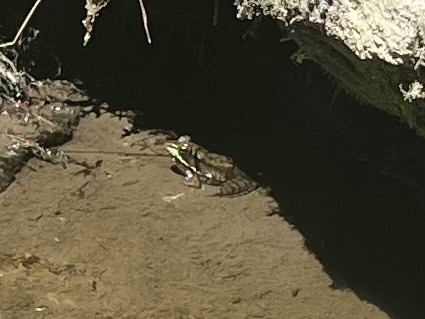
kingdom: Animalia
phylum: Chordata
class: Amphibia
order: Anura
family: Ranidae
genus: Lithobates
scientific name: Lithobates clamitans
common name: Green frog
